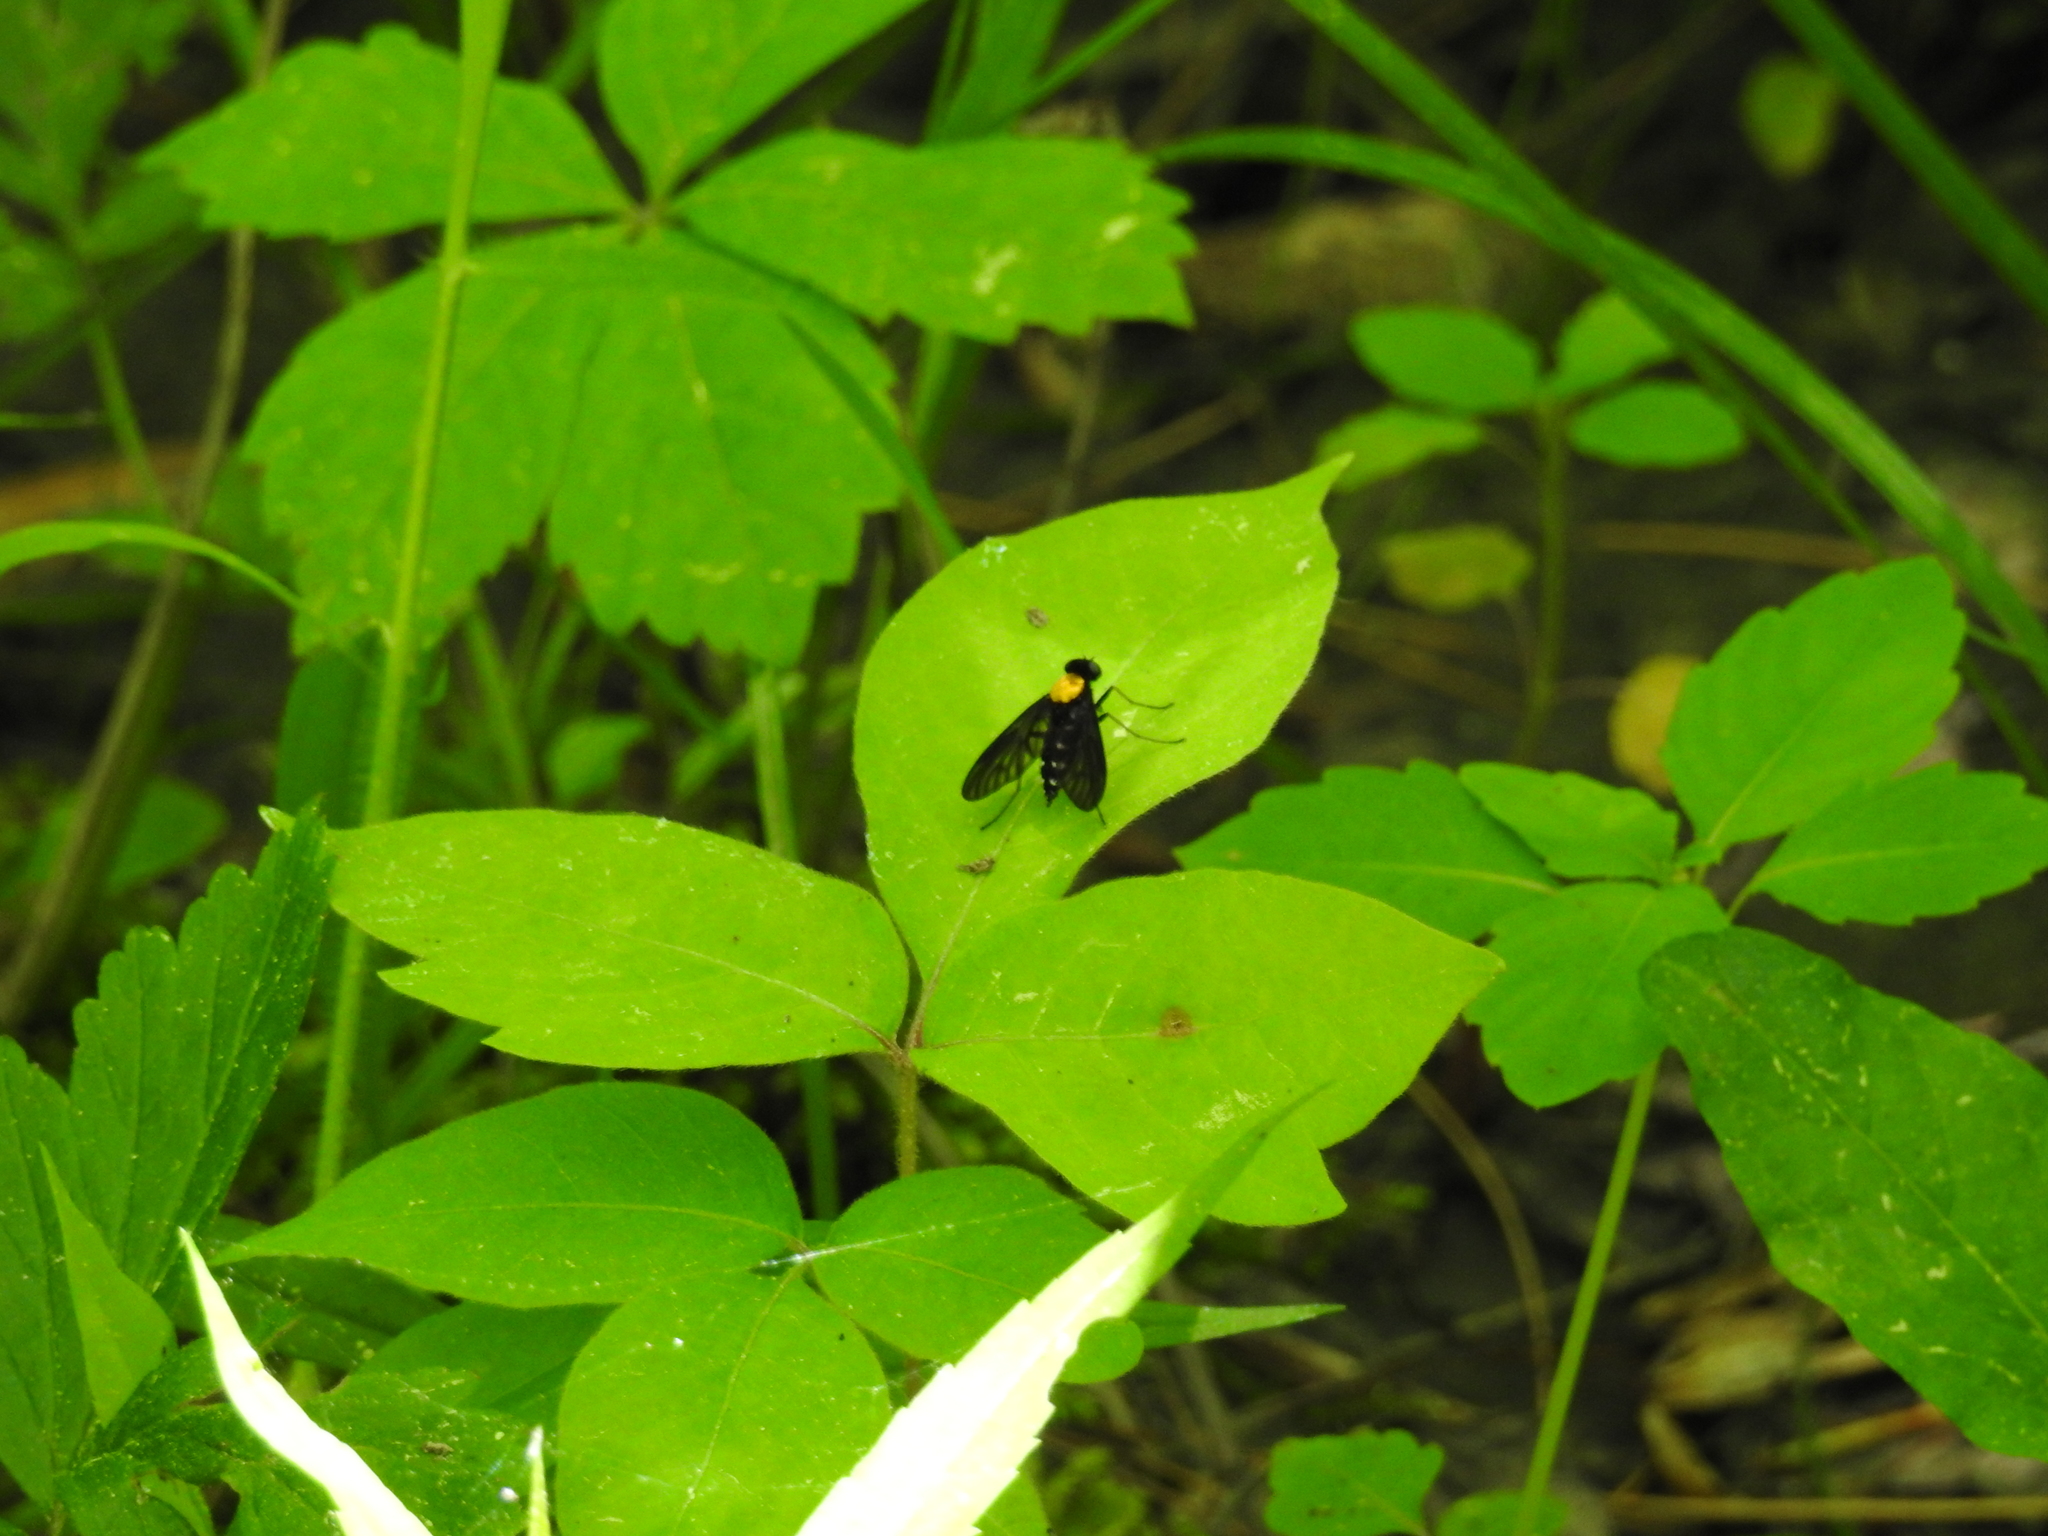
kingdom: Animalia
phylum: Arthropoda
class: Insecta
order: Diptera
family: Rhagionidae
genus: Chrysopilus
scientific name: Chrysopilus thoracicus
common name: Golden-backed snipe fly
